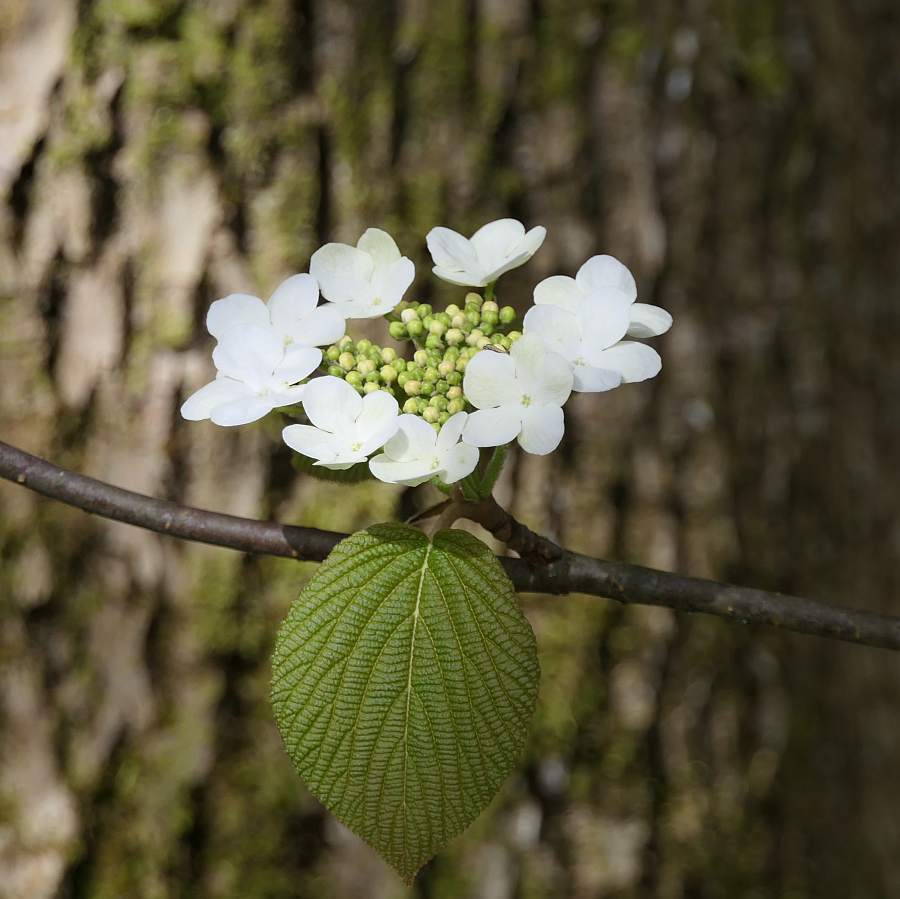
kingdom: Plantae
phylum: Tracheophyta
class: Magnoliopsida
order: Dipsacales
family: Viburnaceae
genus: Viburnum
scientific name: Viburnum lantanoides
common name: Hobblebush
